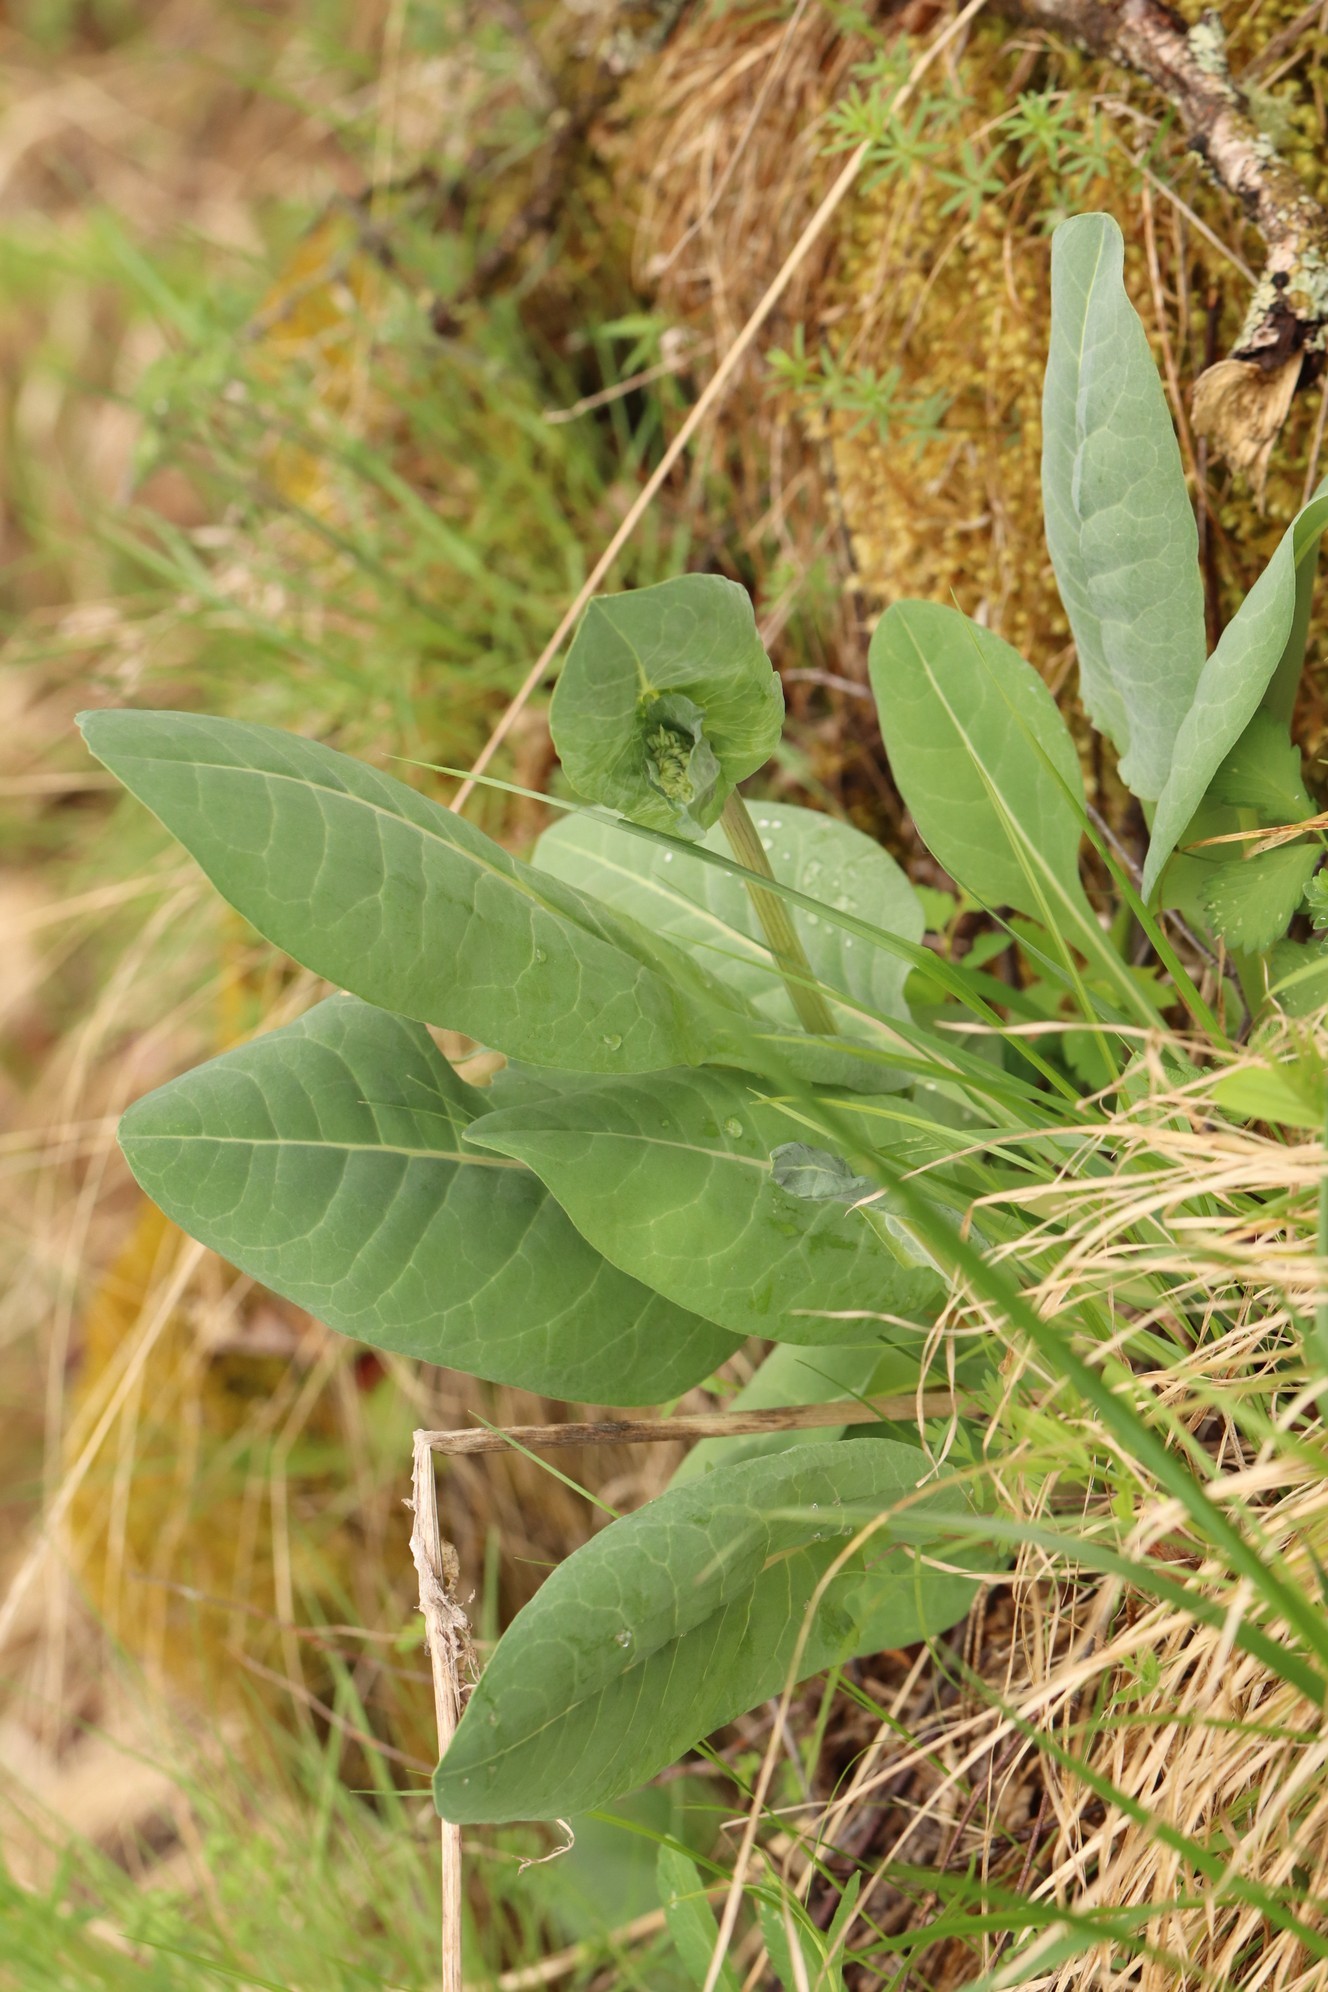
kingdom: Plantae
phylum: Tracheophyta
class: Magnoliopsida
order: Asterales
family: Asteraceae
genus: Ligularia
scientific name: Ligularia glauca
